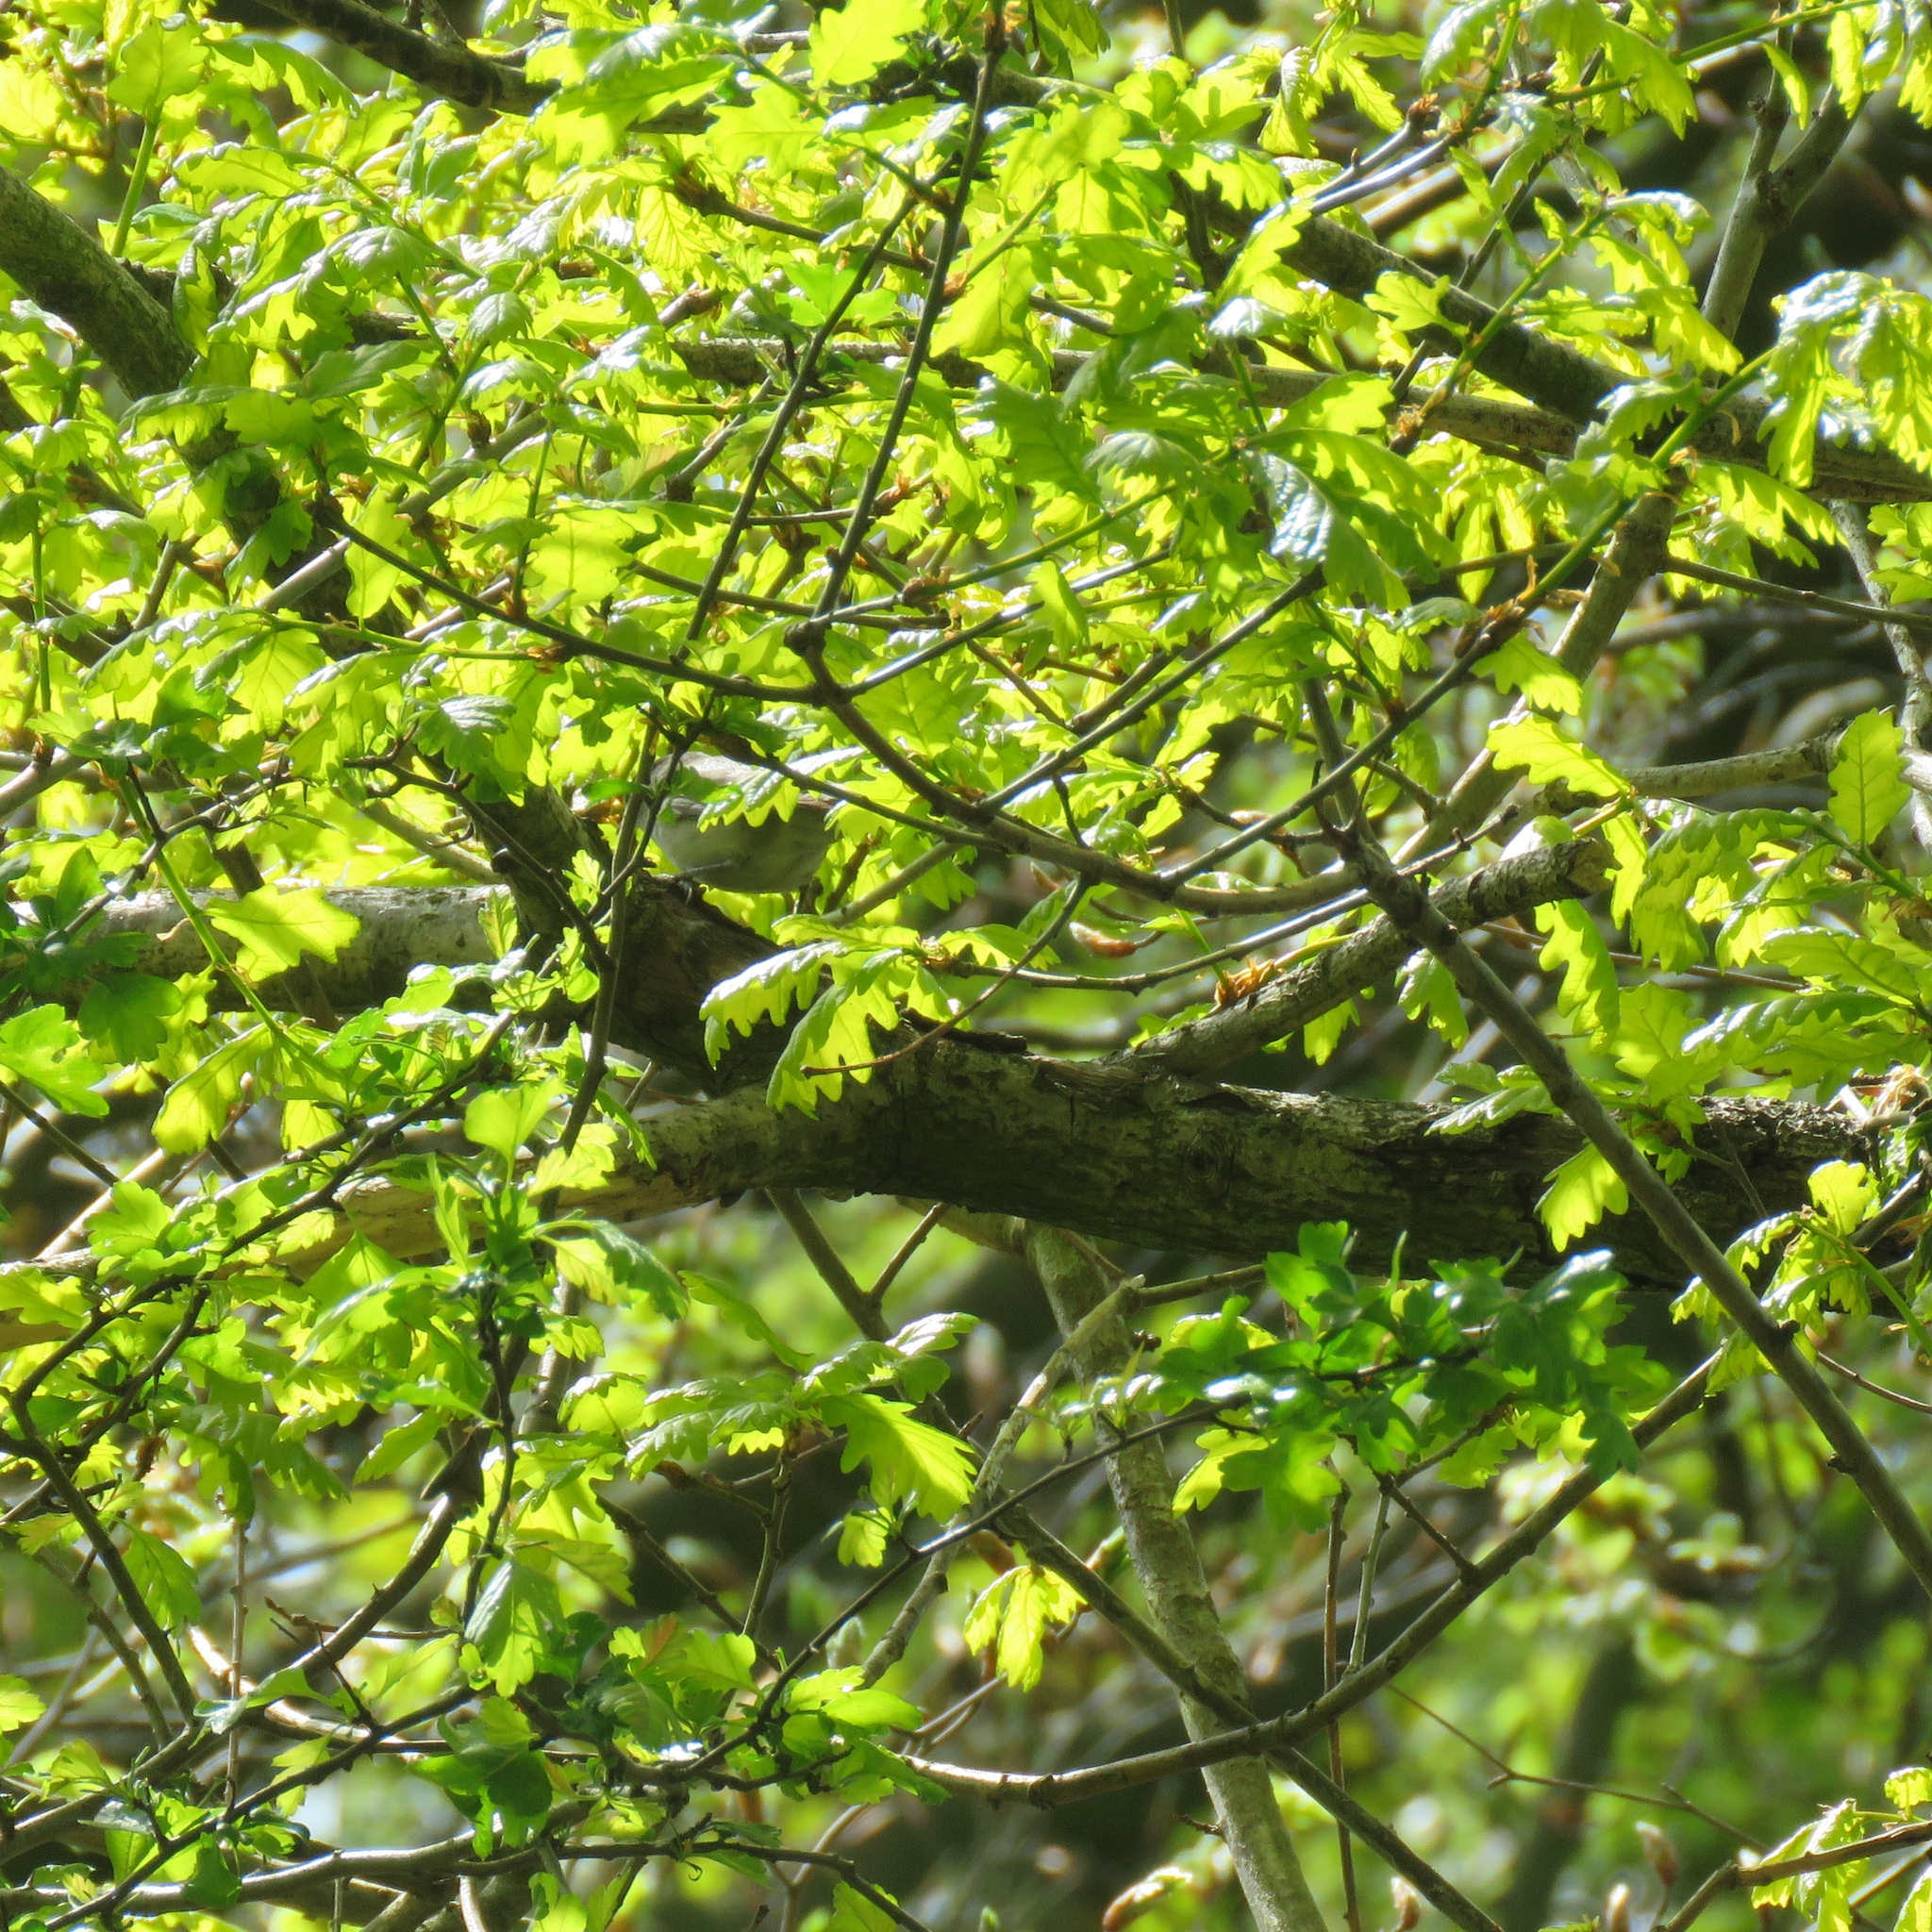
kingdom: Plantae
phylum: Tracheophyta
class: Magnoliopsida
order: Fagales
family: Fagaceae
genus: Quercus
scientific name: Quercus robur
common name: Pedunculate oak
